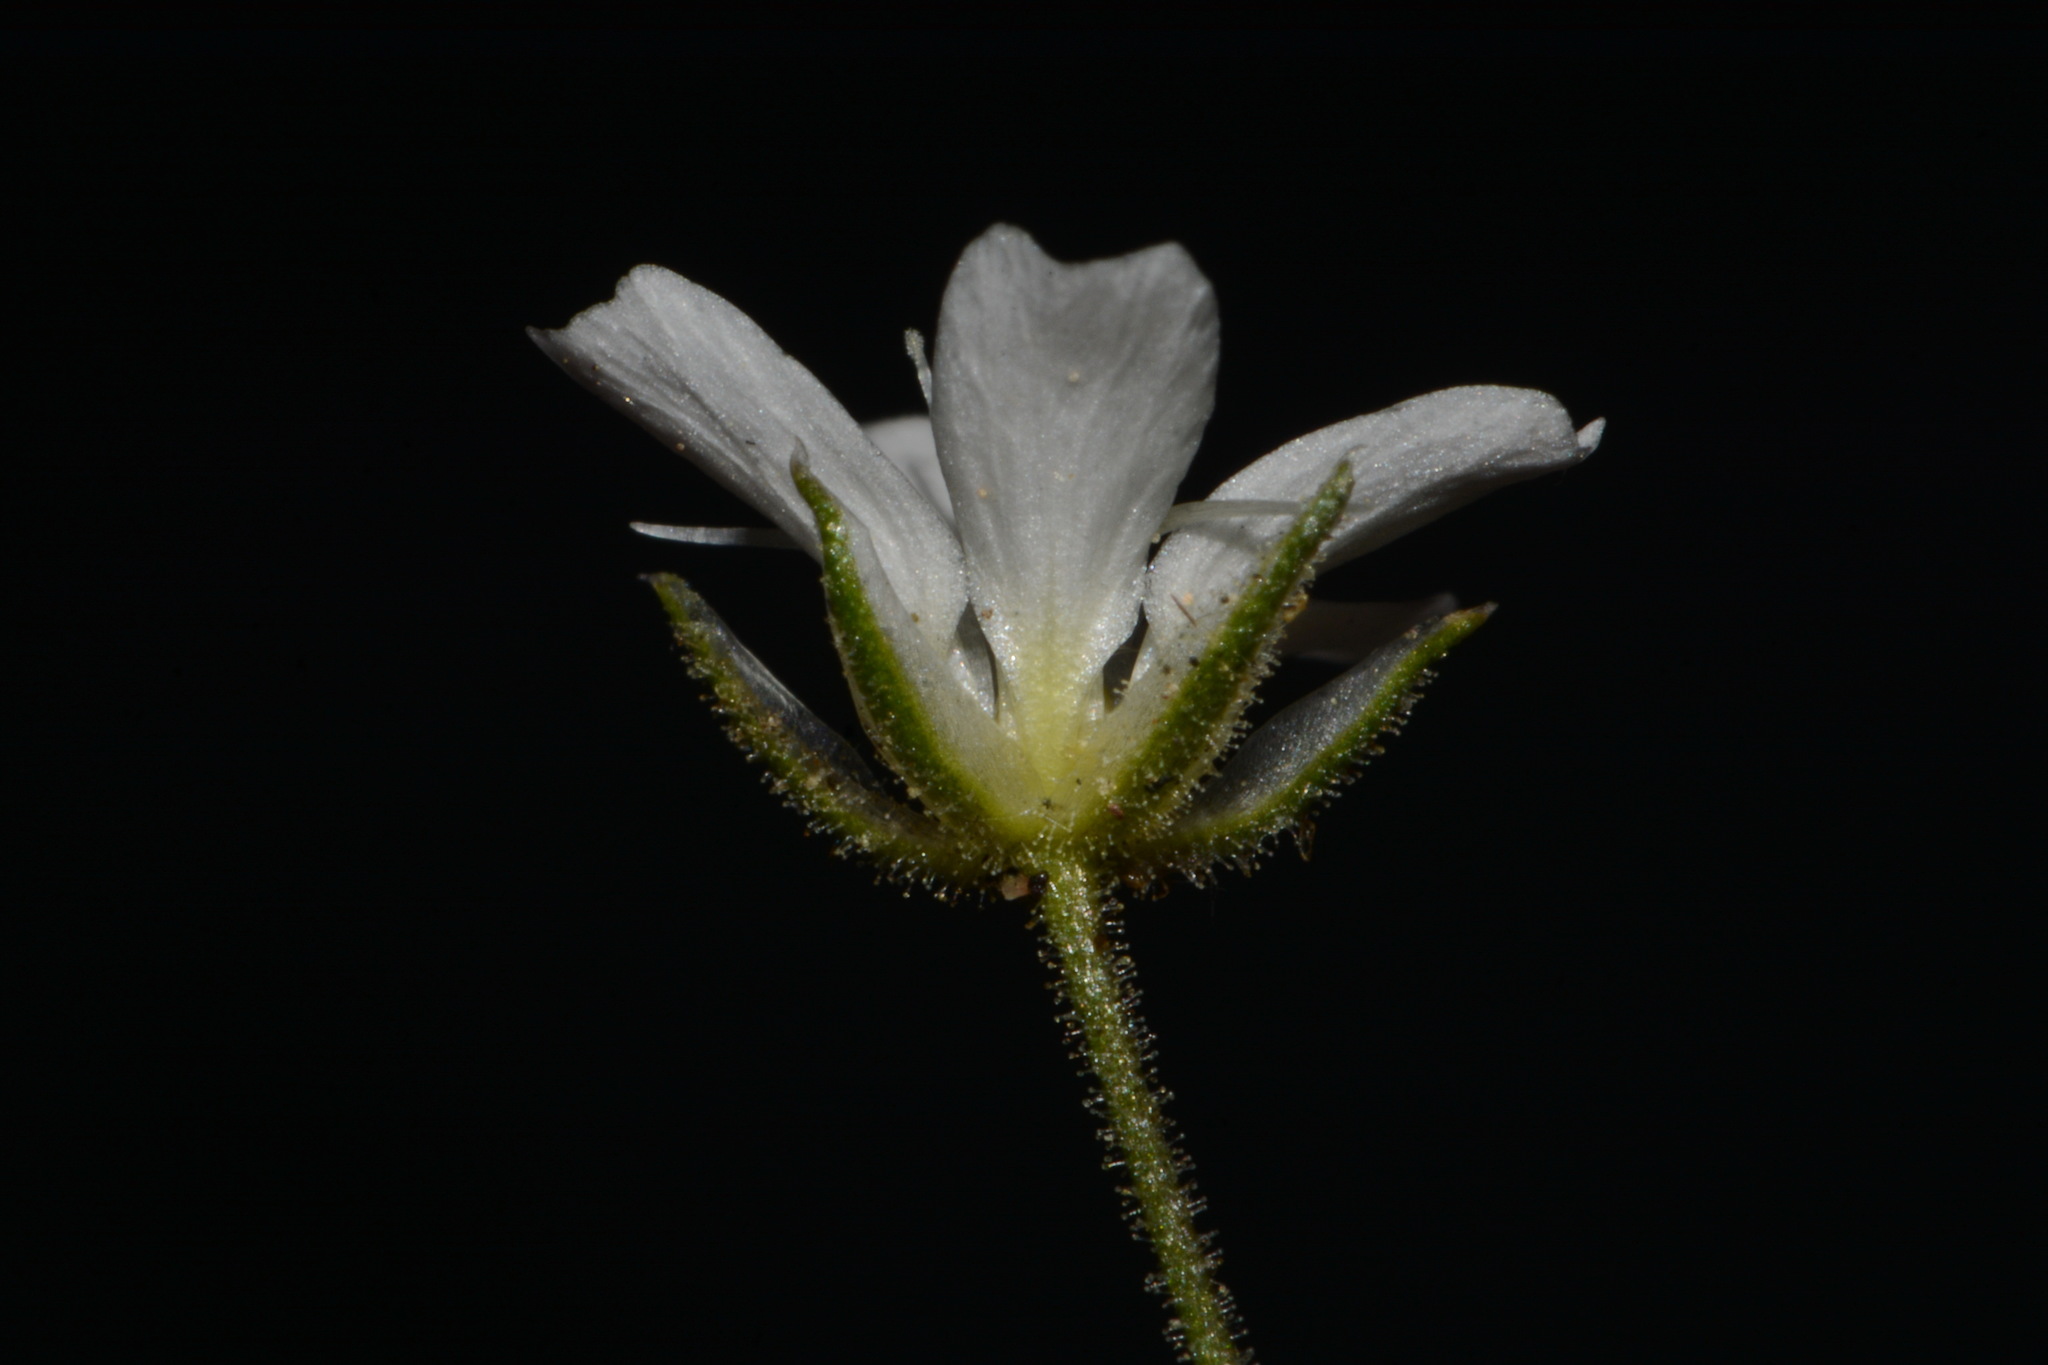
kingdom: Plantae
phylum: Tracheophyta
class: Magnoliopsida
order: Caryophyllales
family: Caryophyllaceae
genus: Eremogone
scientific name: Eremogone fendleri
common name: Fendler's sandwort
